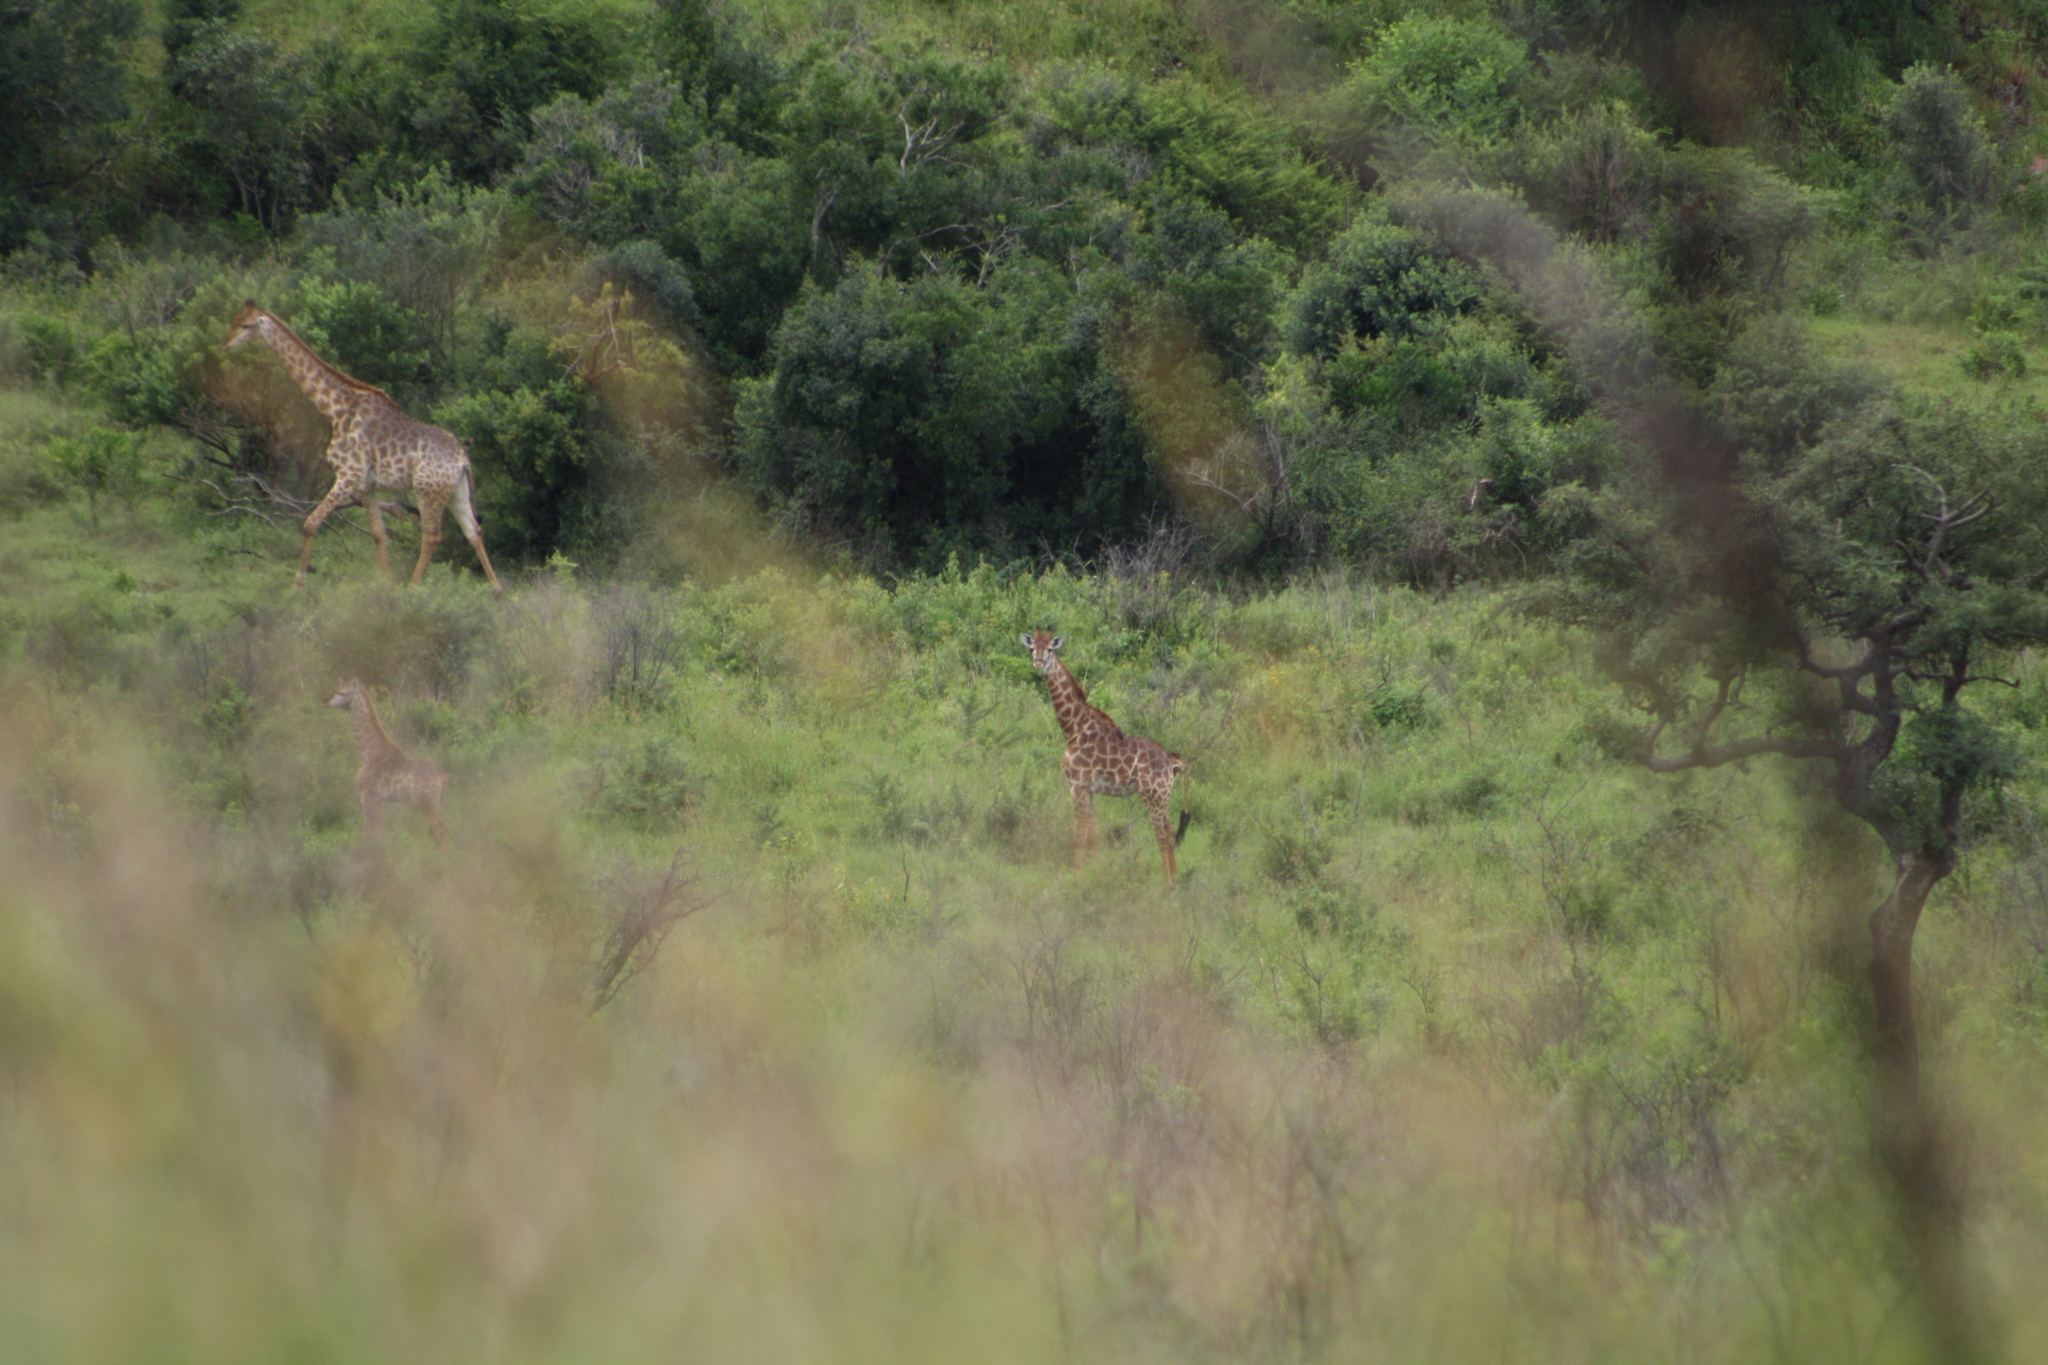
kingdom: Animalia
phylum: Chordata
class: Mammalia
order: Artiodactyla
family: Giraffidae
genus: Giraffa
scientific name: Giraffa giraffa
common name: Southern giraffe
